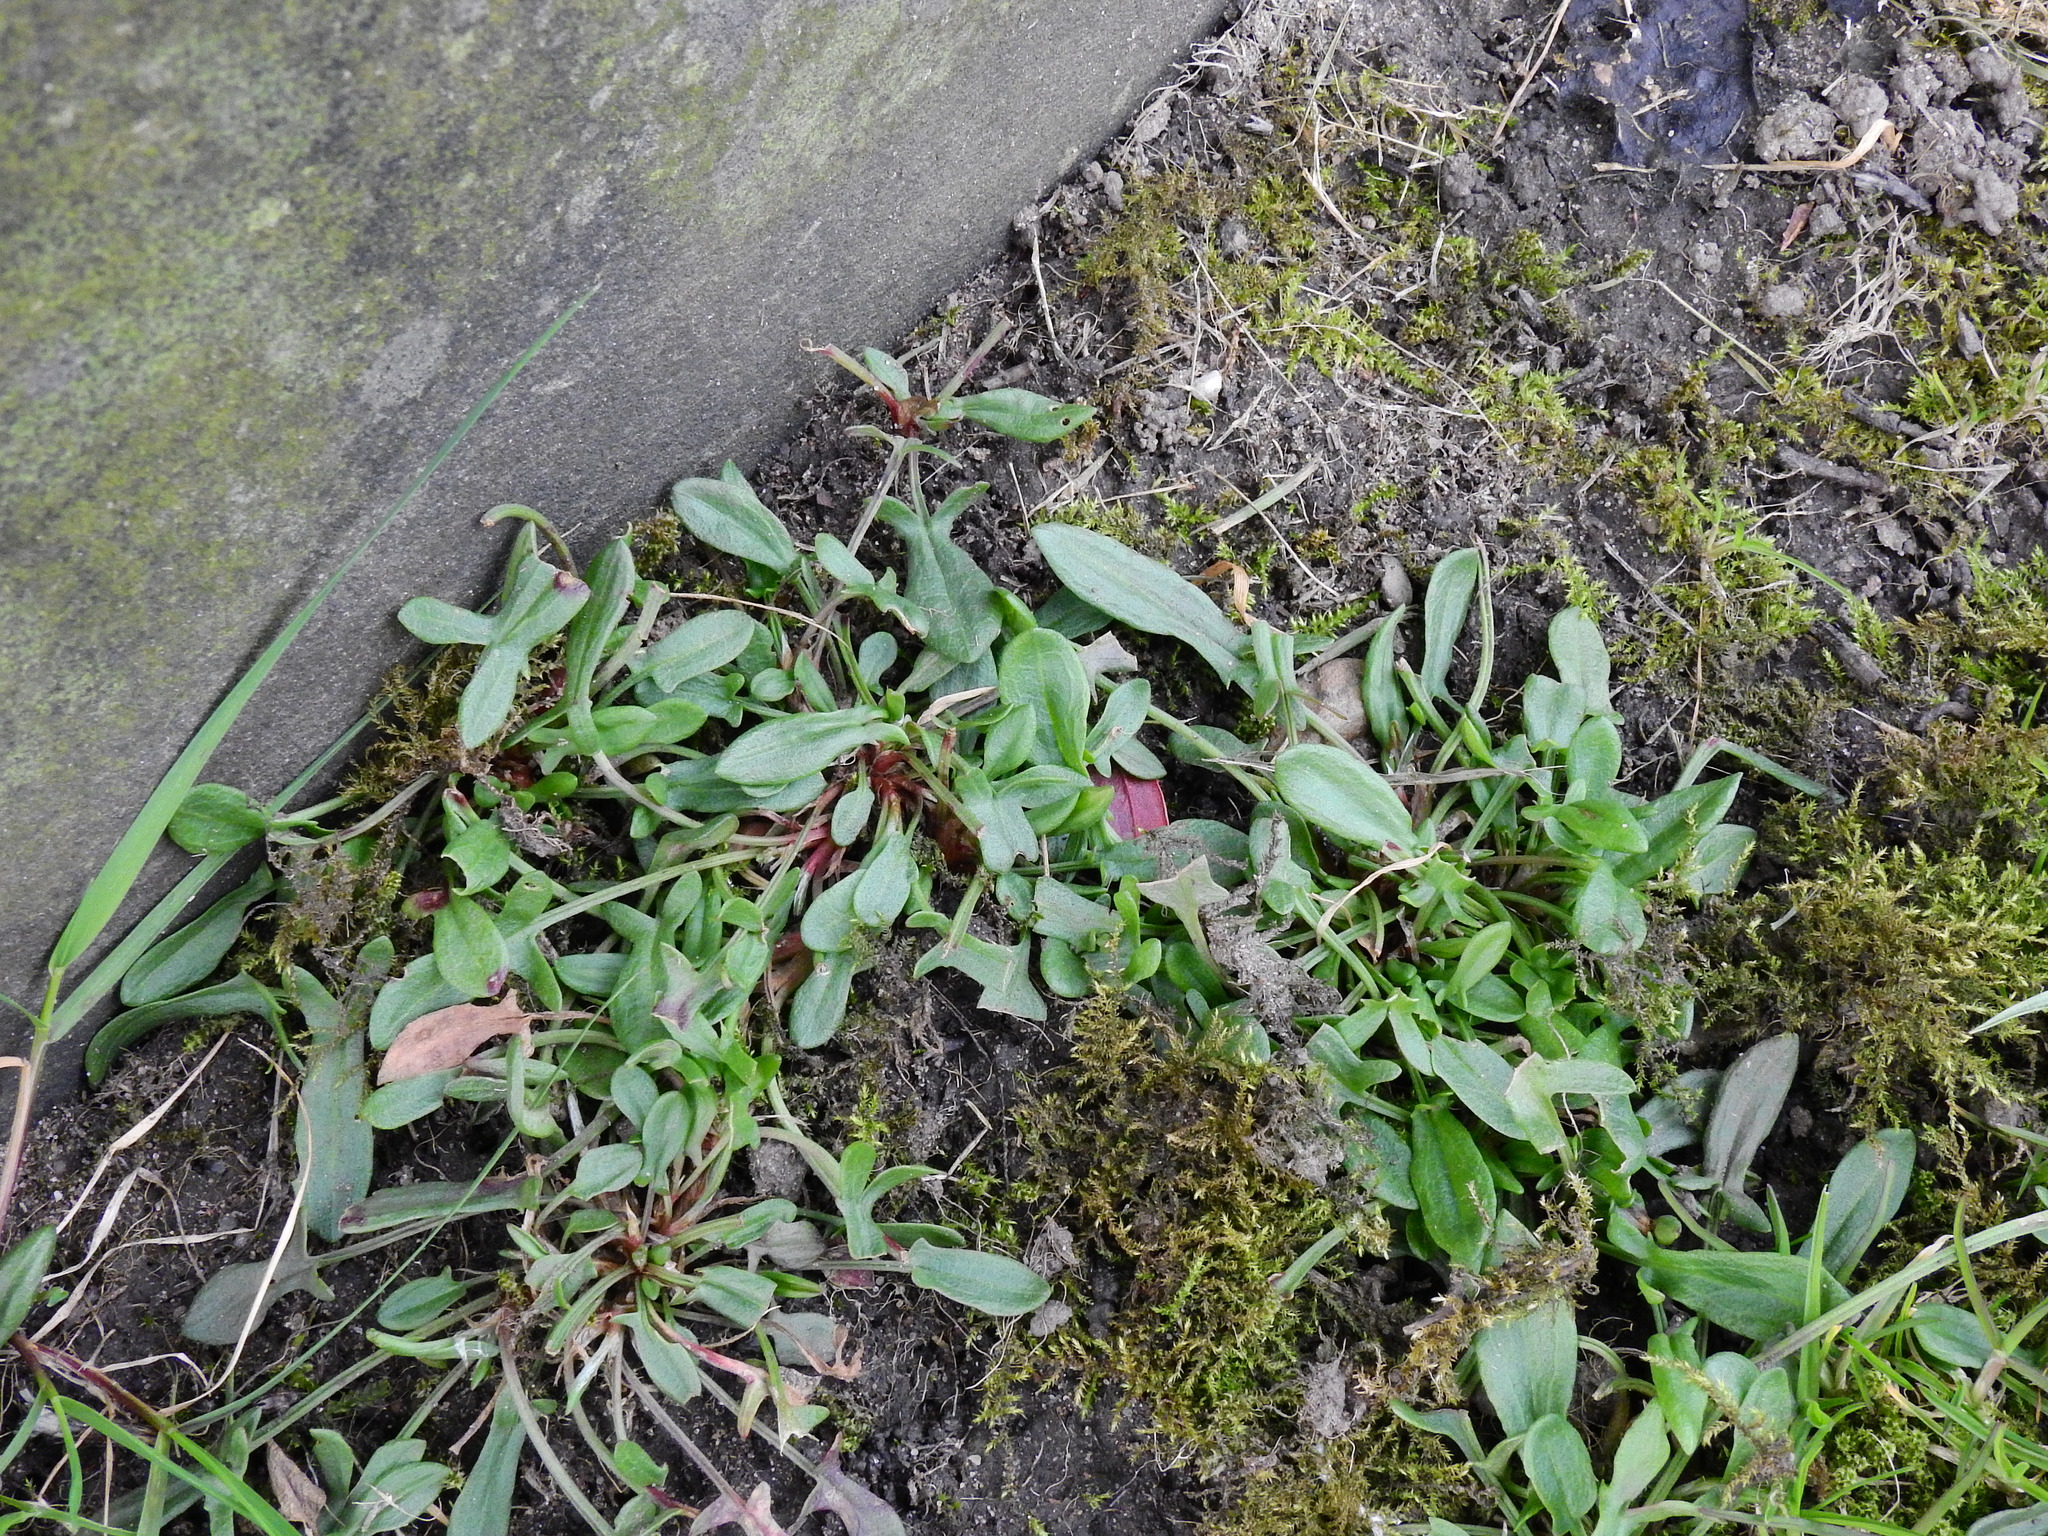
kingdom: Plantae
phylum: Tracheophyta
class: Magnoliopsida
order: Caryophyllales
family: Polygonaceae
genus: Rumex
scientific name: Rumex acetosella
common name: Common sheep sorrel
